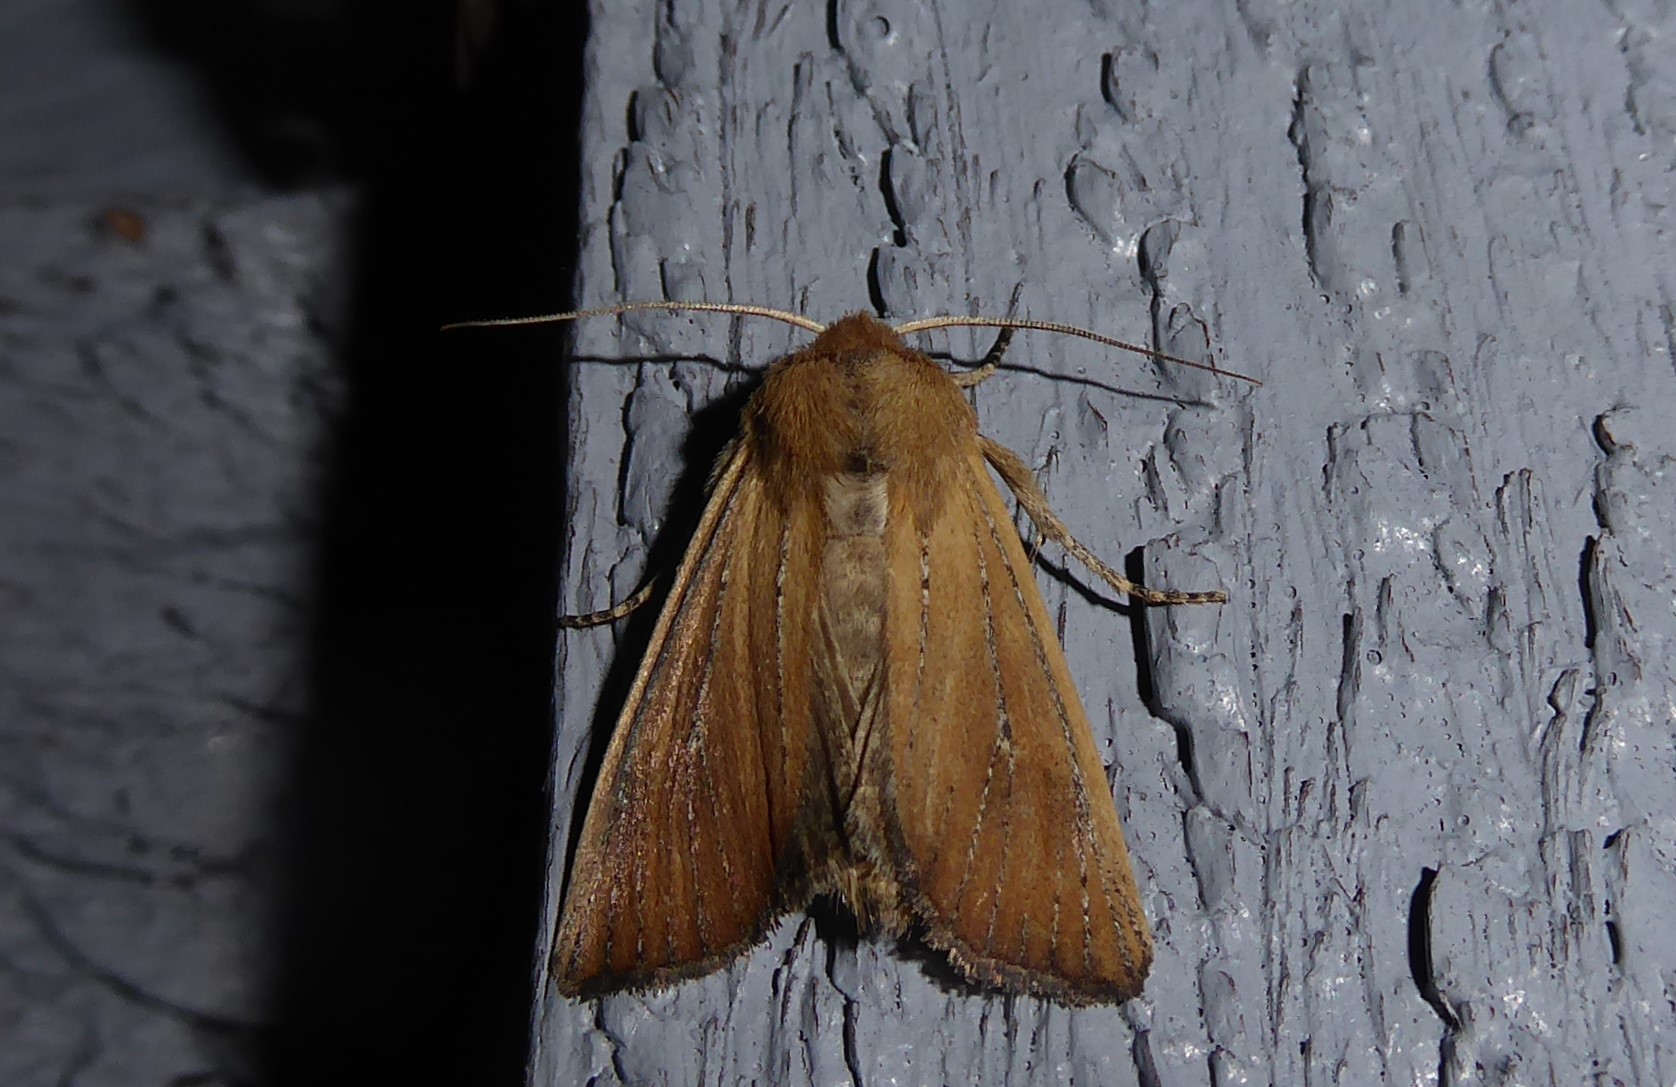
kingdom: Animalia
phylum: Arthropoda
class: Insecta
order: Lepidoptera
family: Noctuidae
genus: Ichneutica
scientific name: Ichneutica blenheimensis
